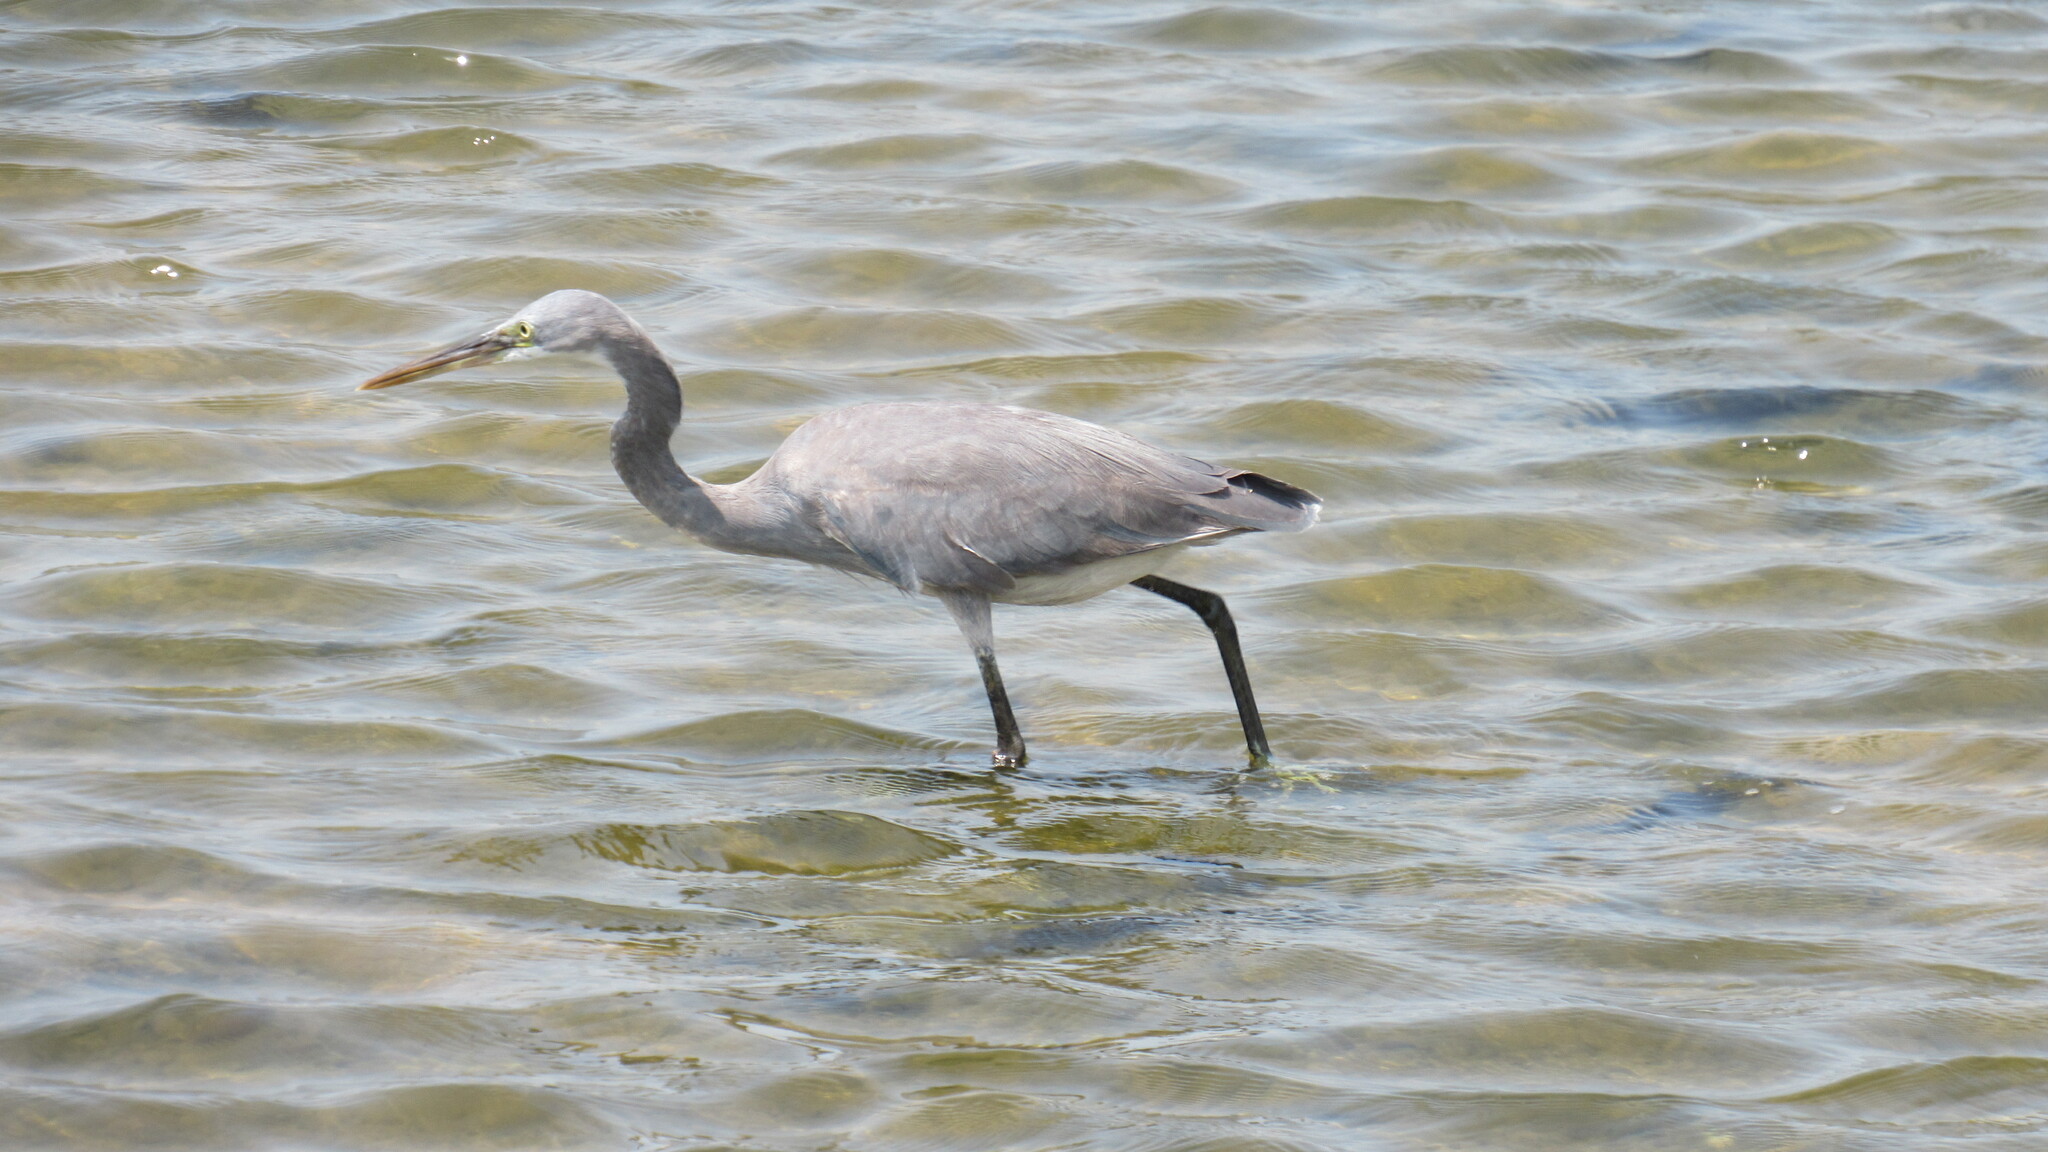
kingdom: Animalia
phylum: Chordata
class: Aves
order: Pelecaniformes
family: Ardeidae
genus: Egretta
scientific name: Egretta gularis
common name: Western reef-heron
